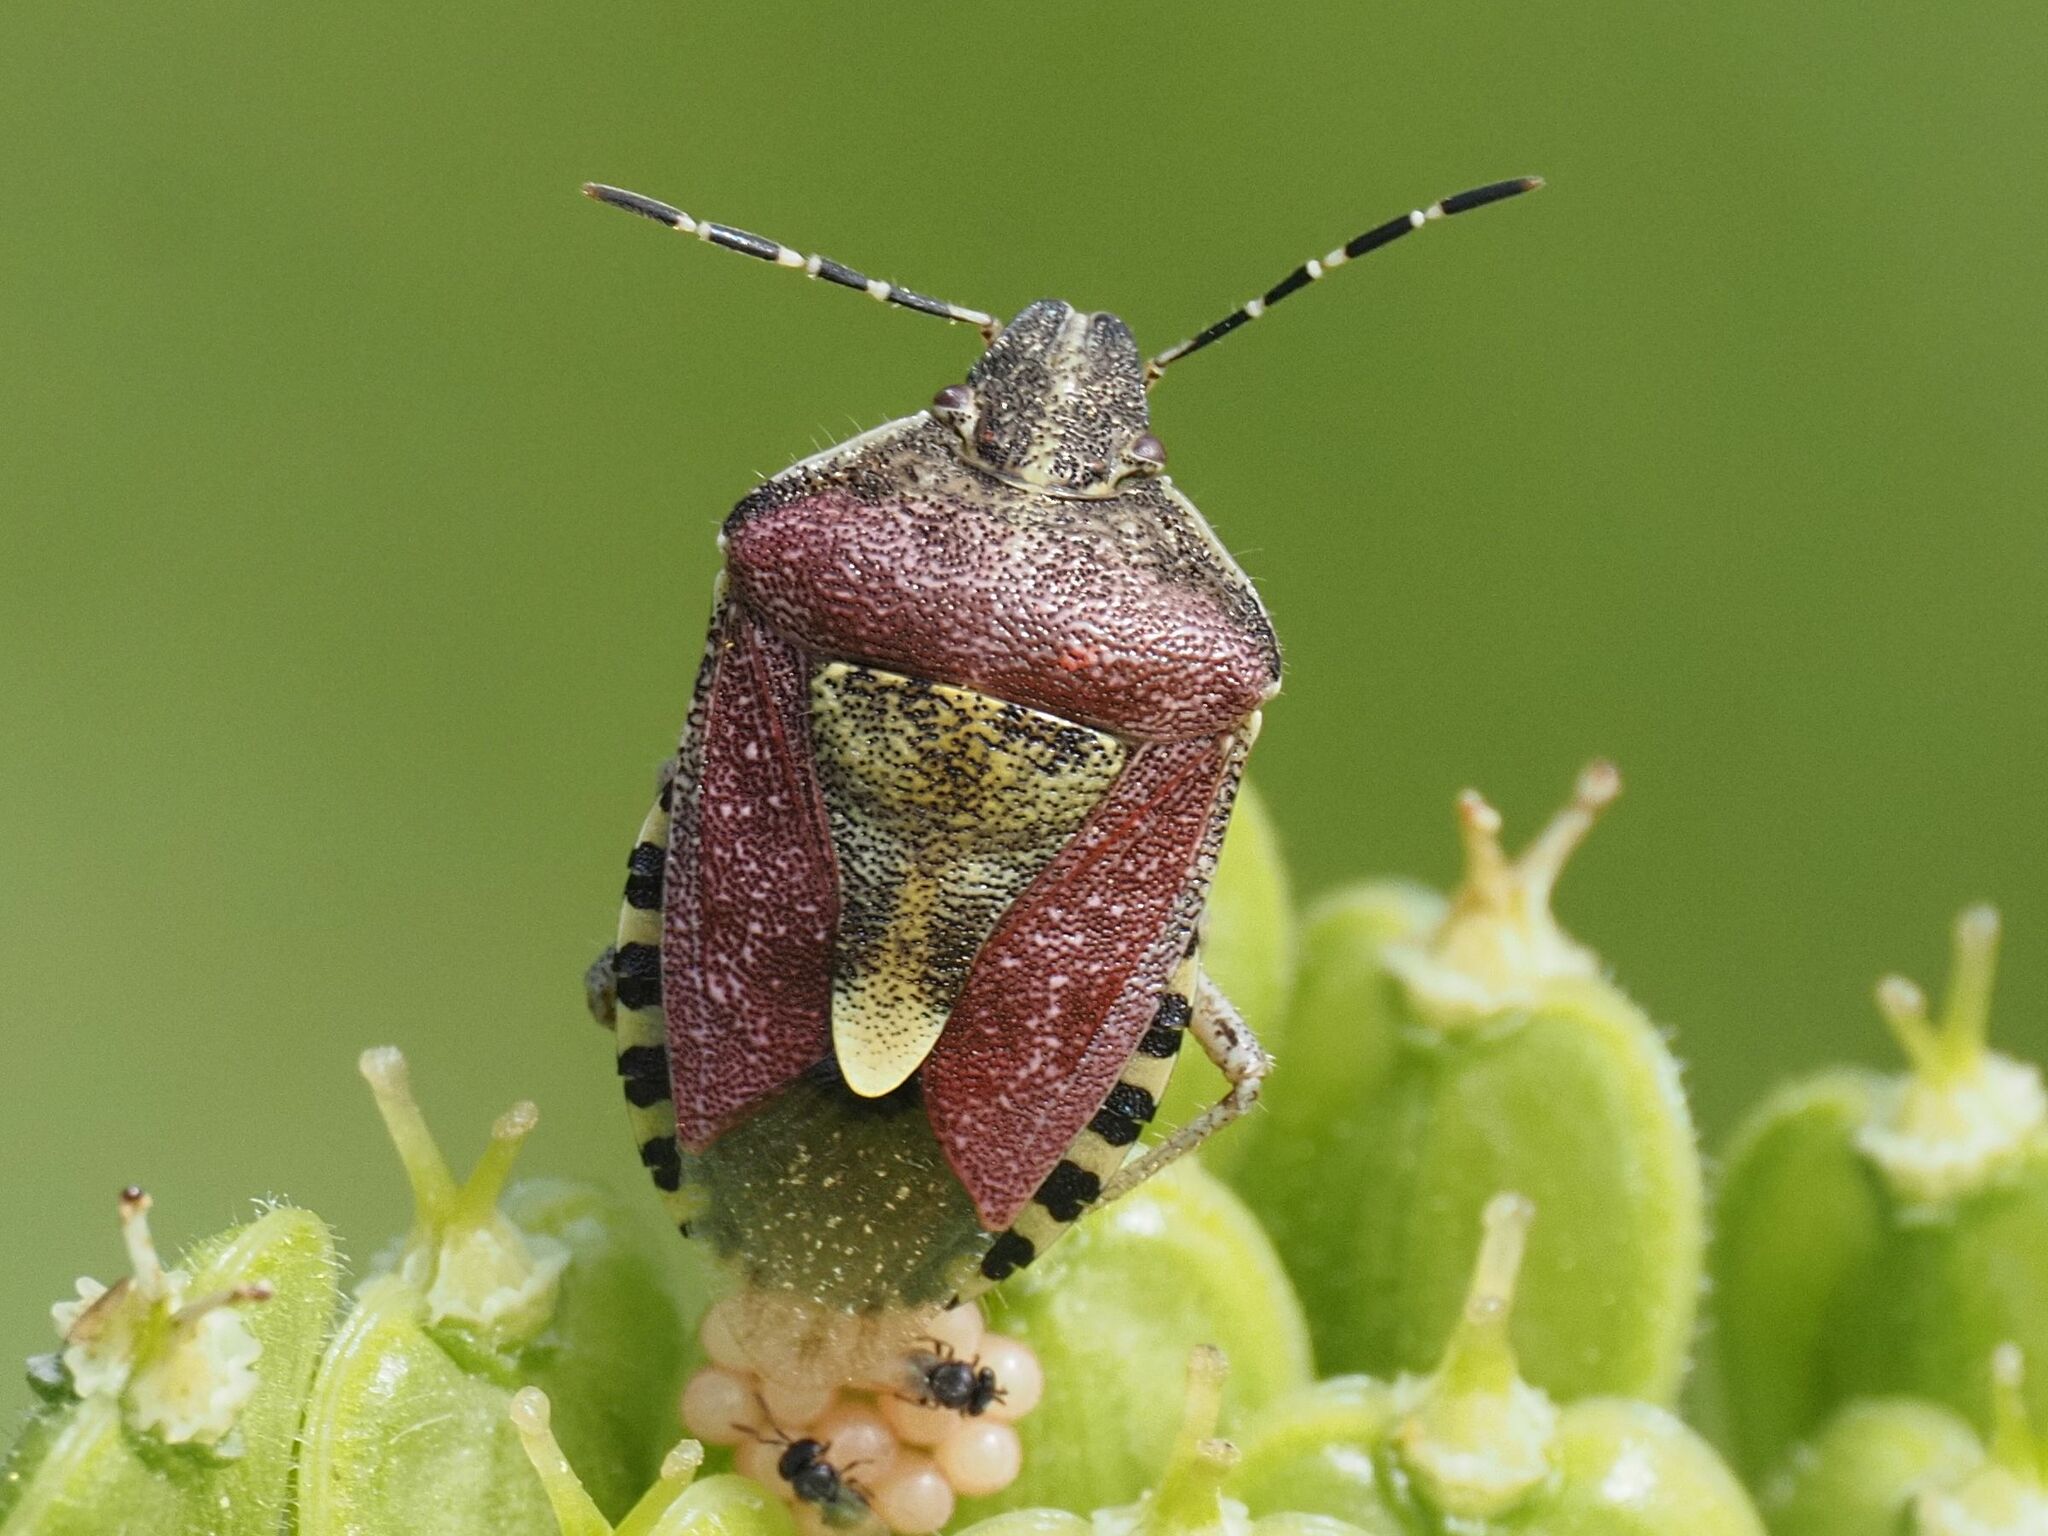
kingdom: Animalia
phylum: Arthropoda
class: Insecta
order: Hemiptera
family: Pentatomidae
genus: Dolycoris
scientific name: Dolycoris baccarum
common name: Sloe bug
